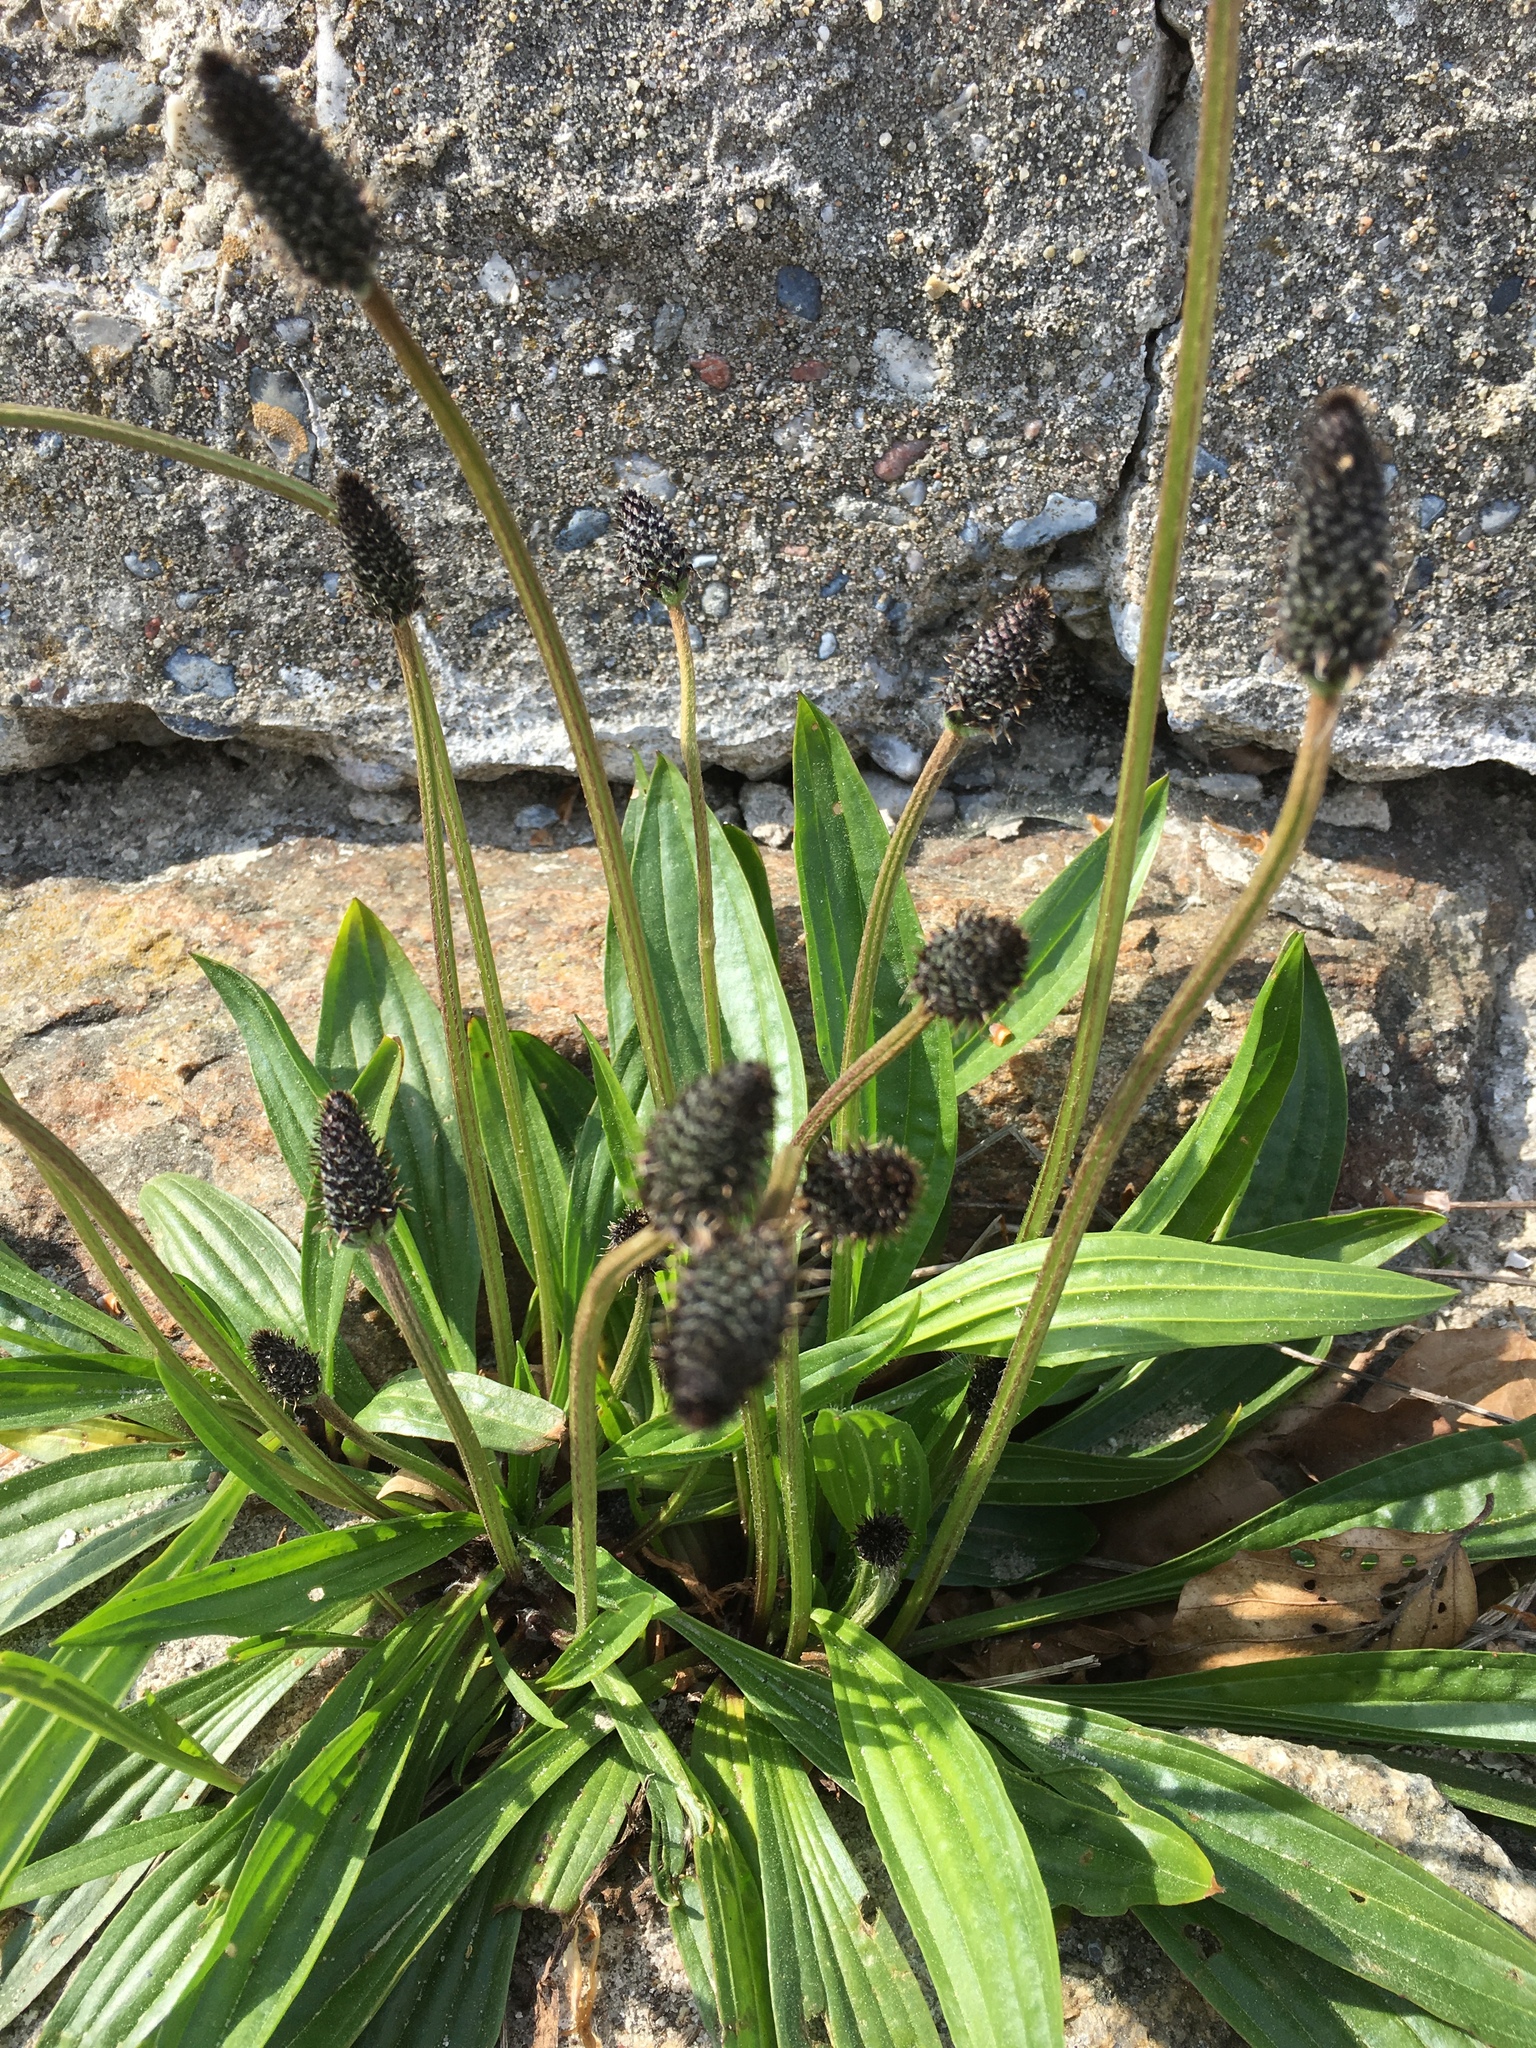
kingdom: Plantae
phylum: Tracheophyta
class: Magnoliopsida
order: Lamiales
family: Plantaginaceae
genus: Plantago
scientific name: Plantago lanceolata
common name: Ribwort plantain
